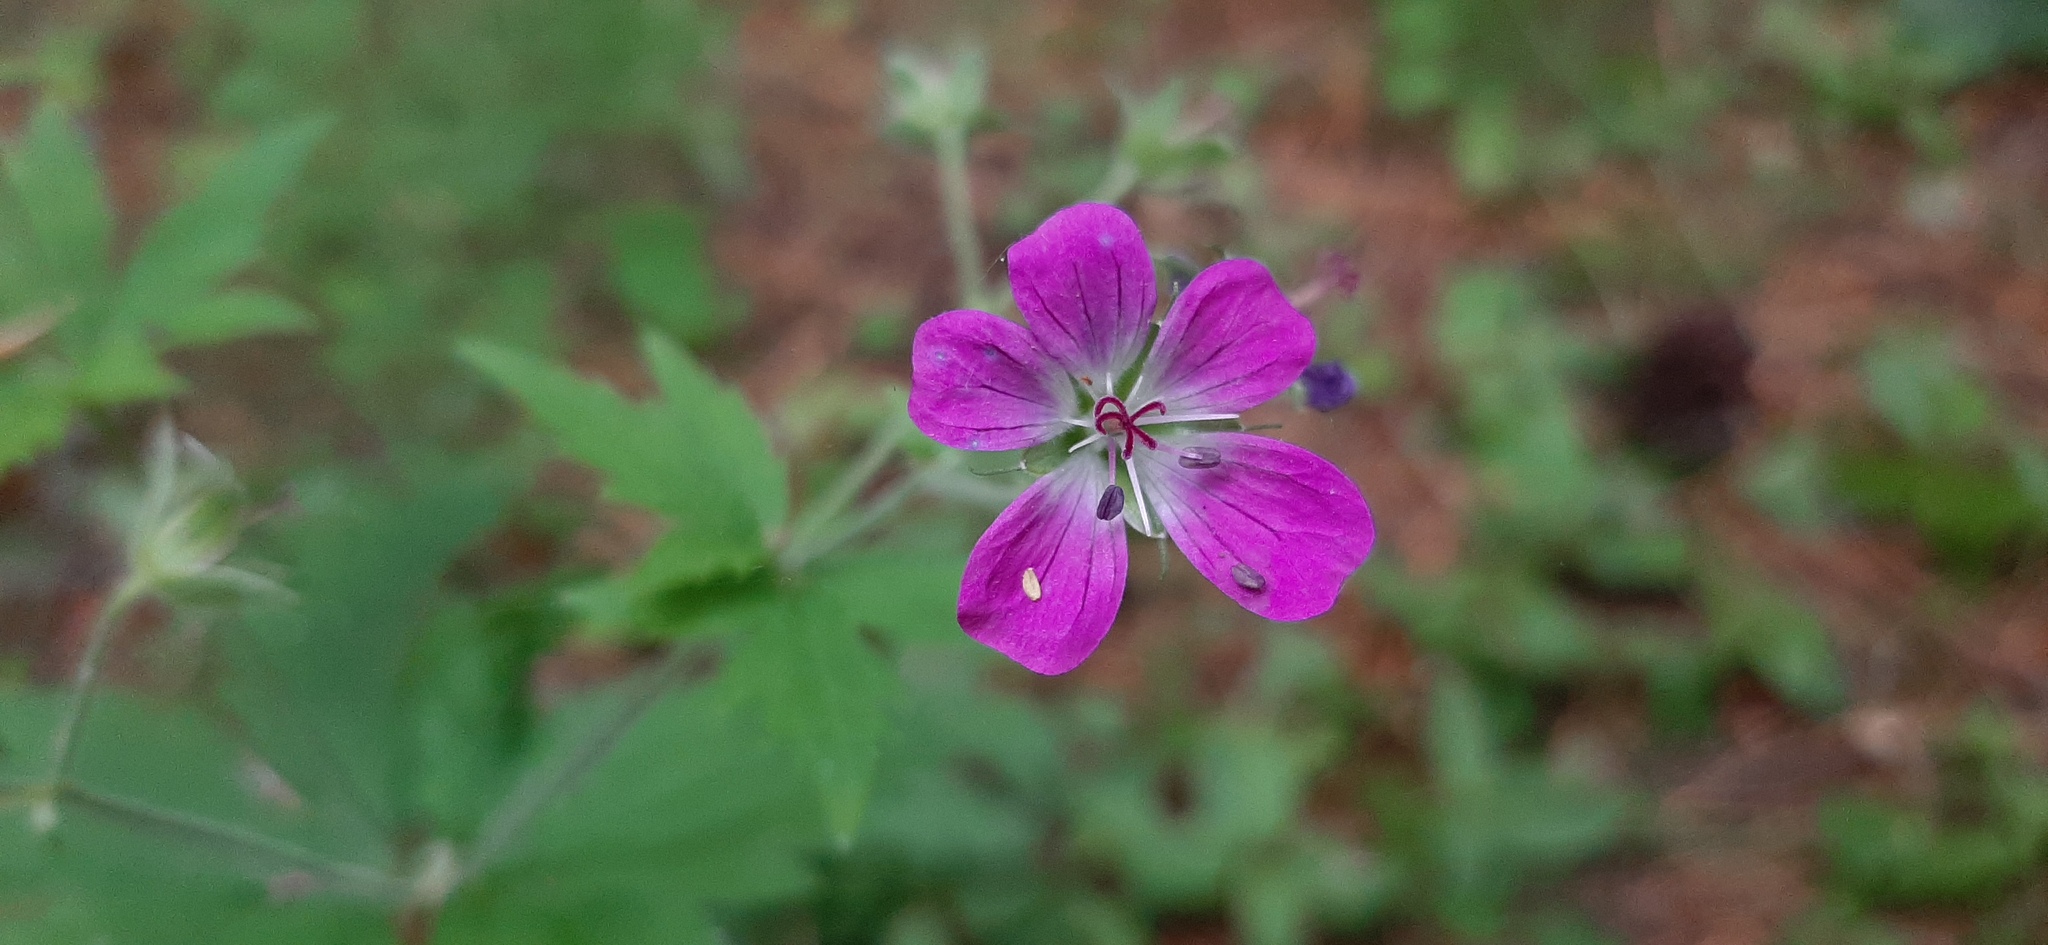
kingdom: Plantae
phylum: Tracheophyta
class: Magnoliopsida
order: Geraniales
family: Geraniaceae
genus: Geranium
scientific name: Geranium sylvaticum
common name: Wood crane's-bill
